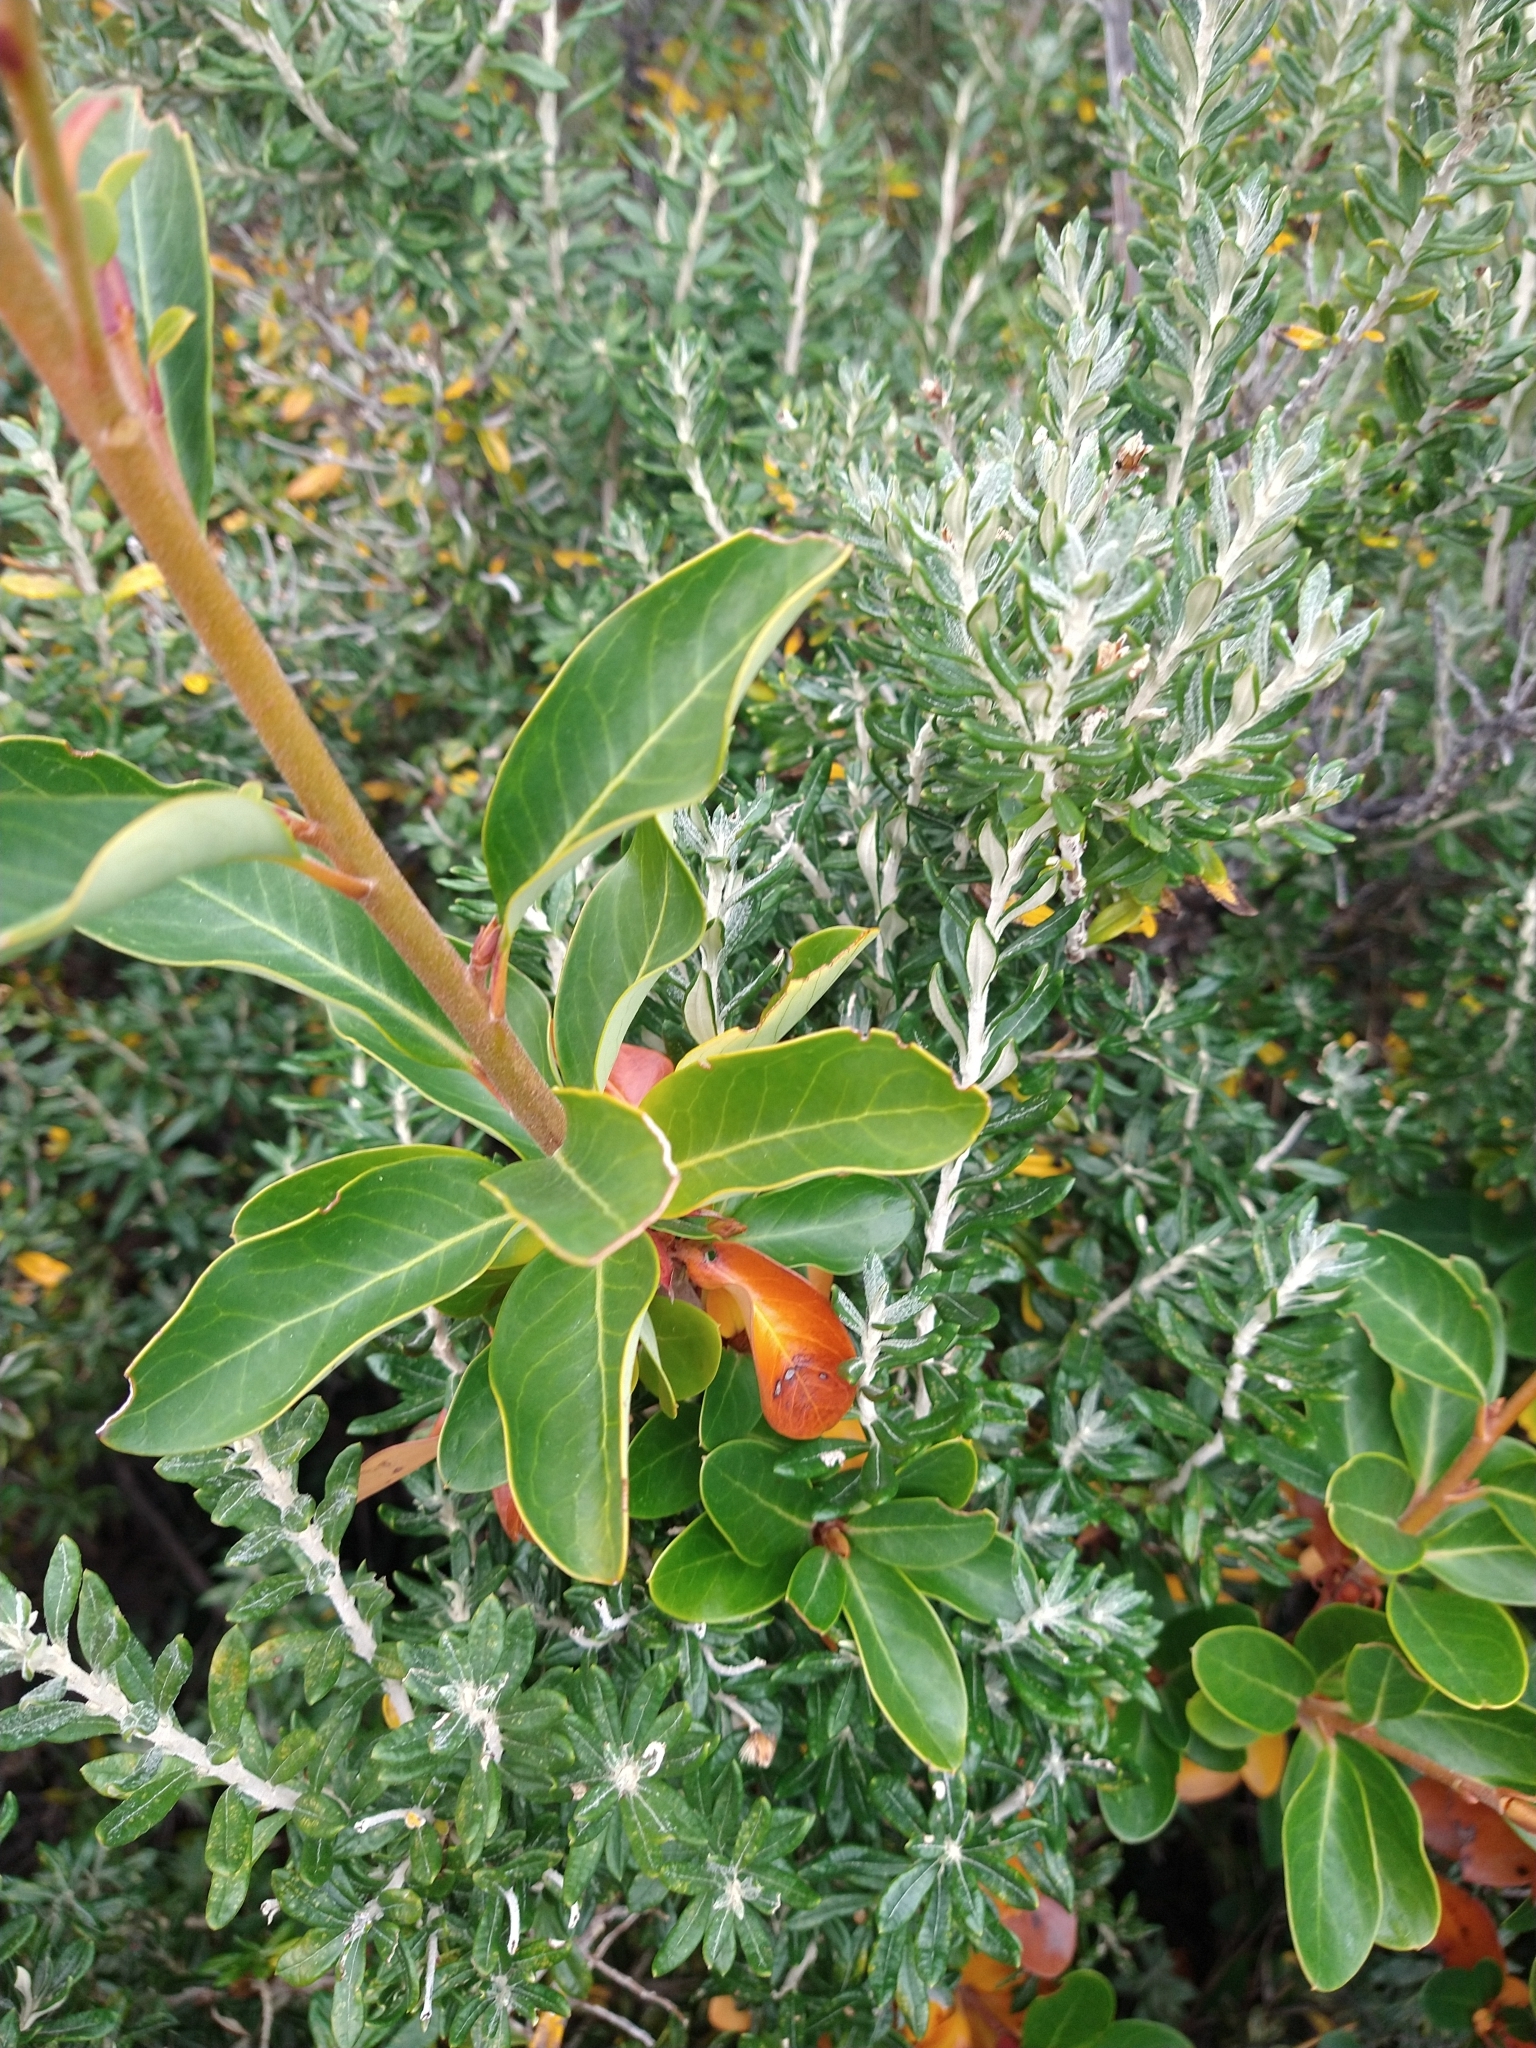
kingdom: Plantae
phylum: Tracheophyta
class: Magnoliopsida
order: Proteales
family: Proteaceae
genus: Embothrium
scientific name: Embothrium coccineum
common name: Chilean firebush
